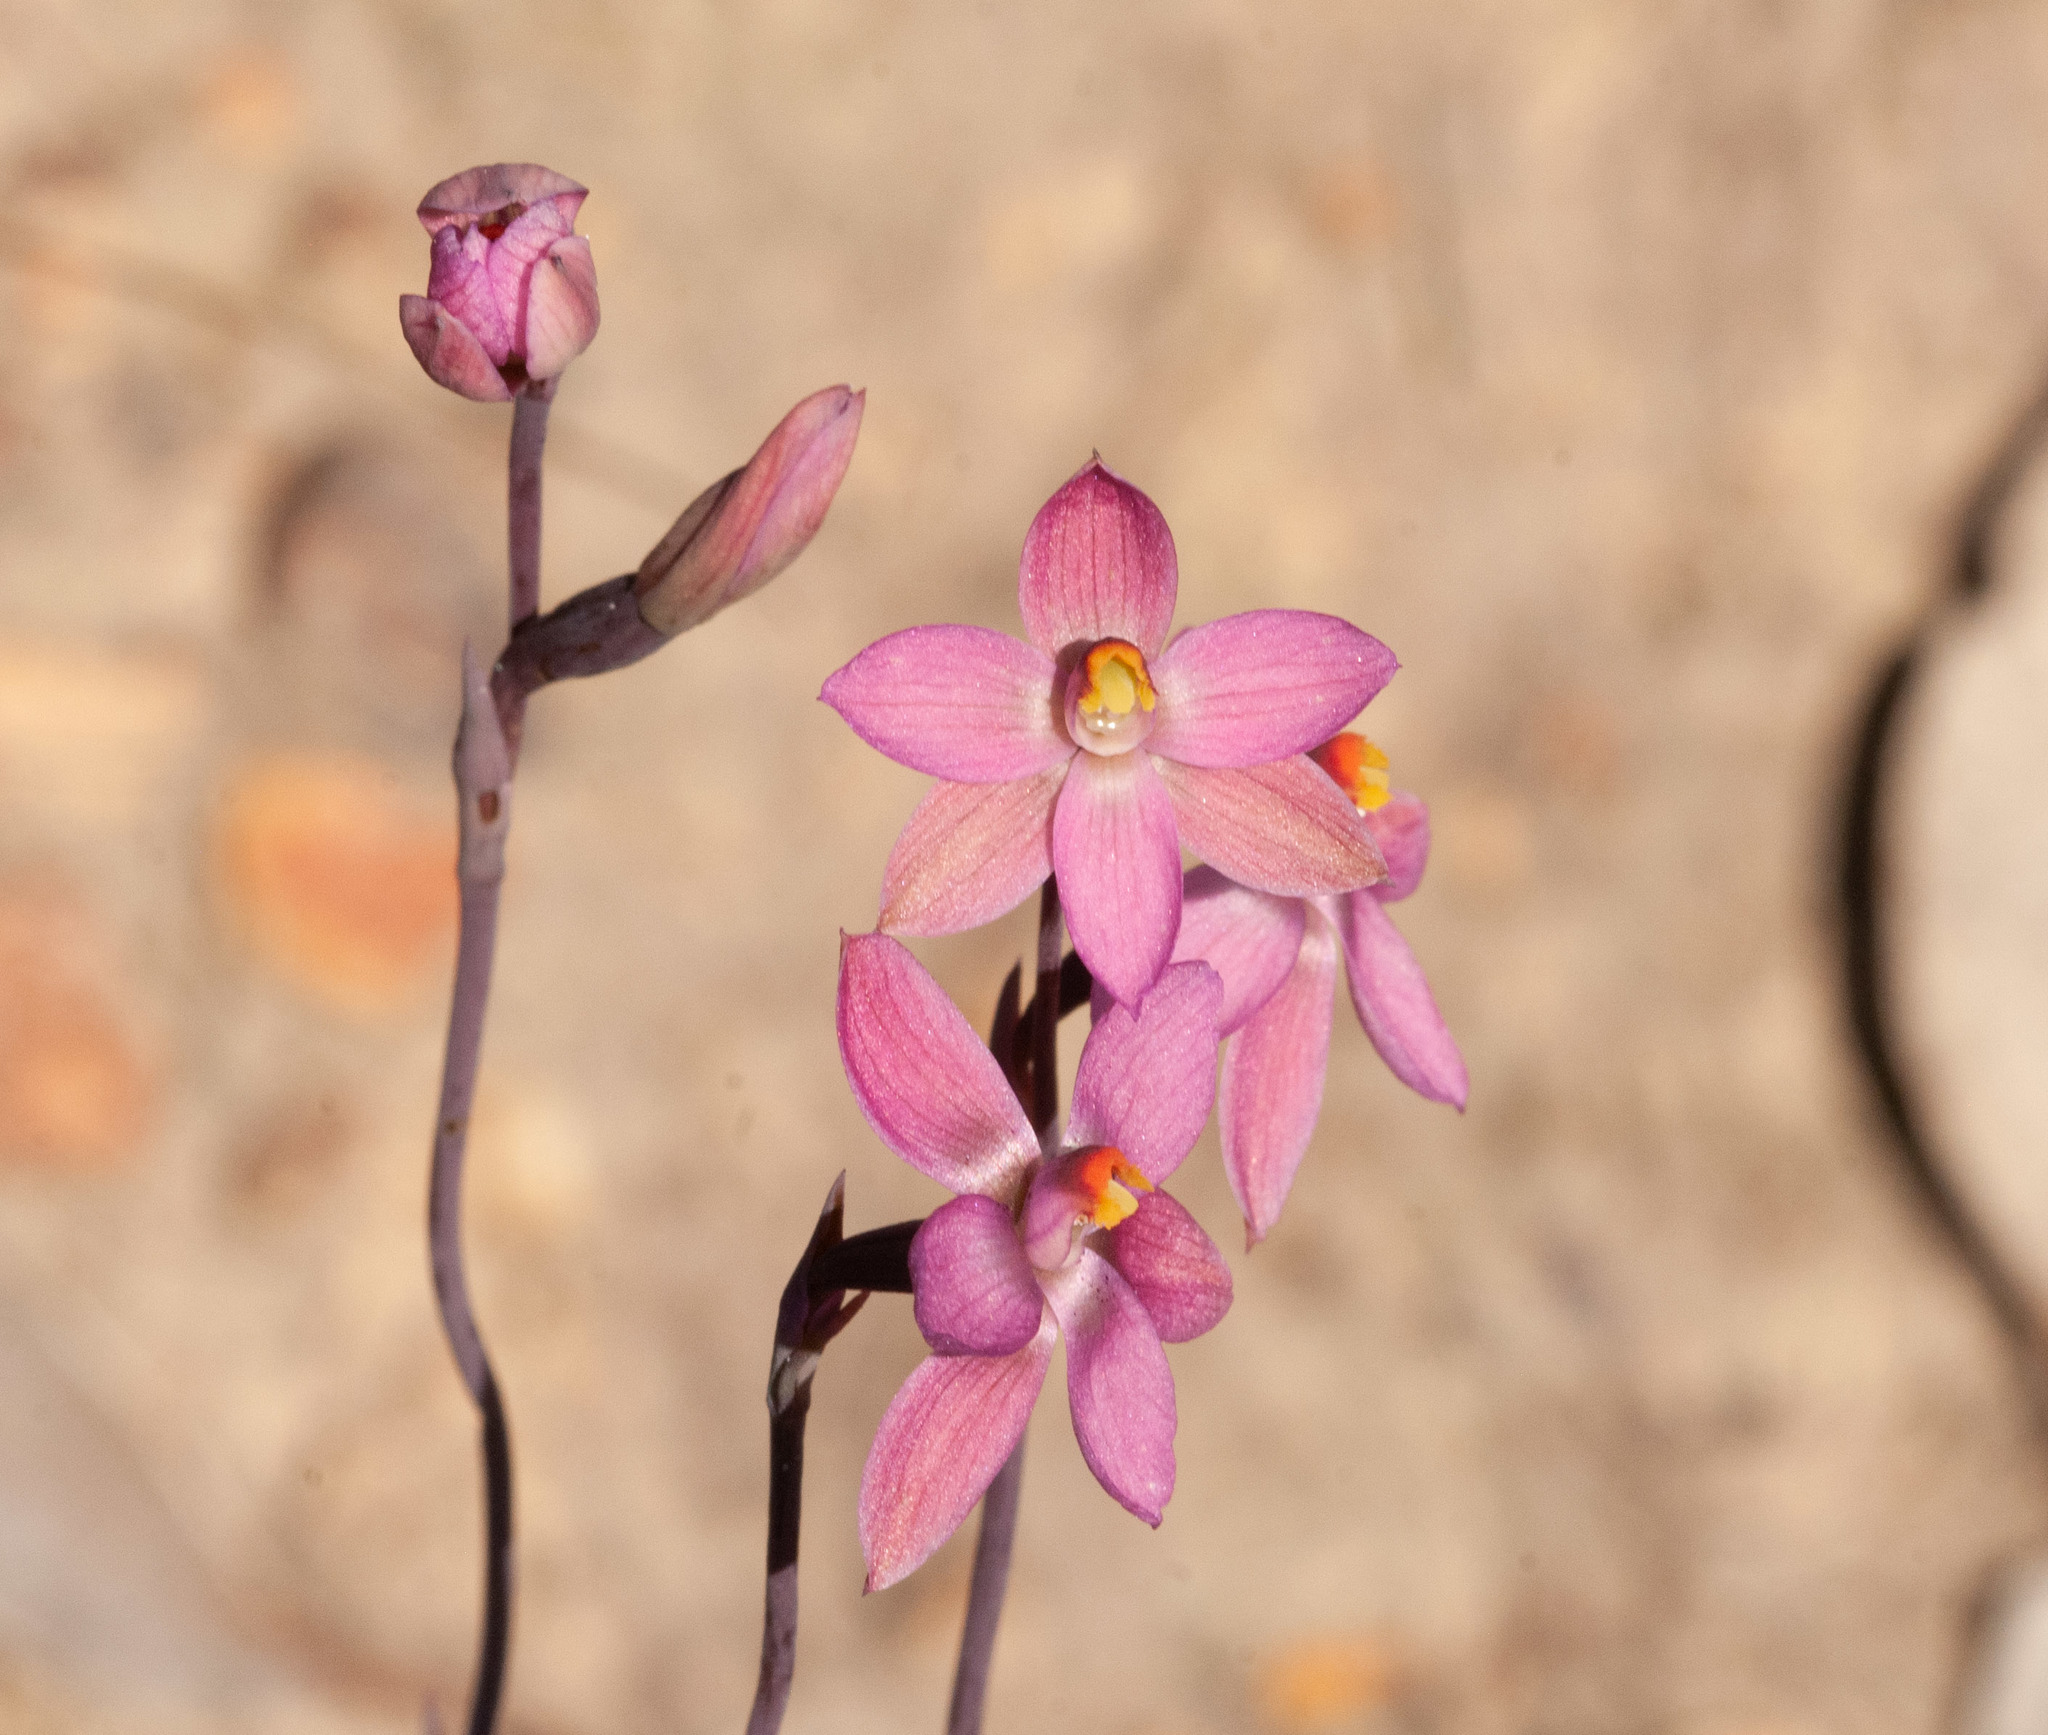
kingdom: Plantae
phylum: Tracheophyta
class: Liliopsida
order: Asparagales
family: Orchidaceae
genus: Thelymitra
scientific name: Thelymitra rubra
